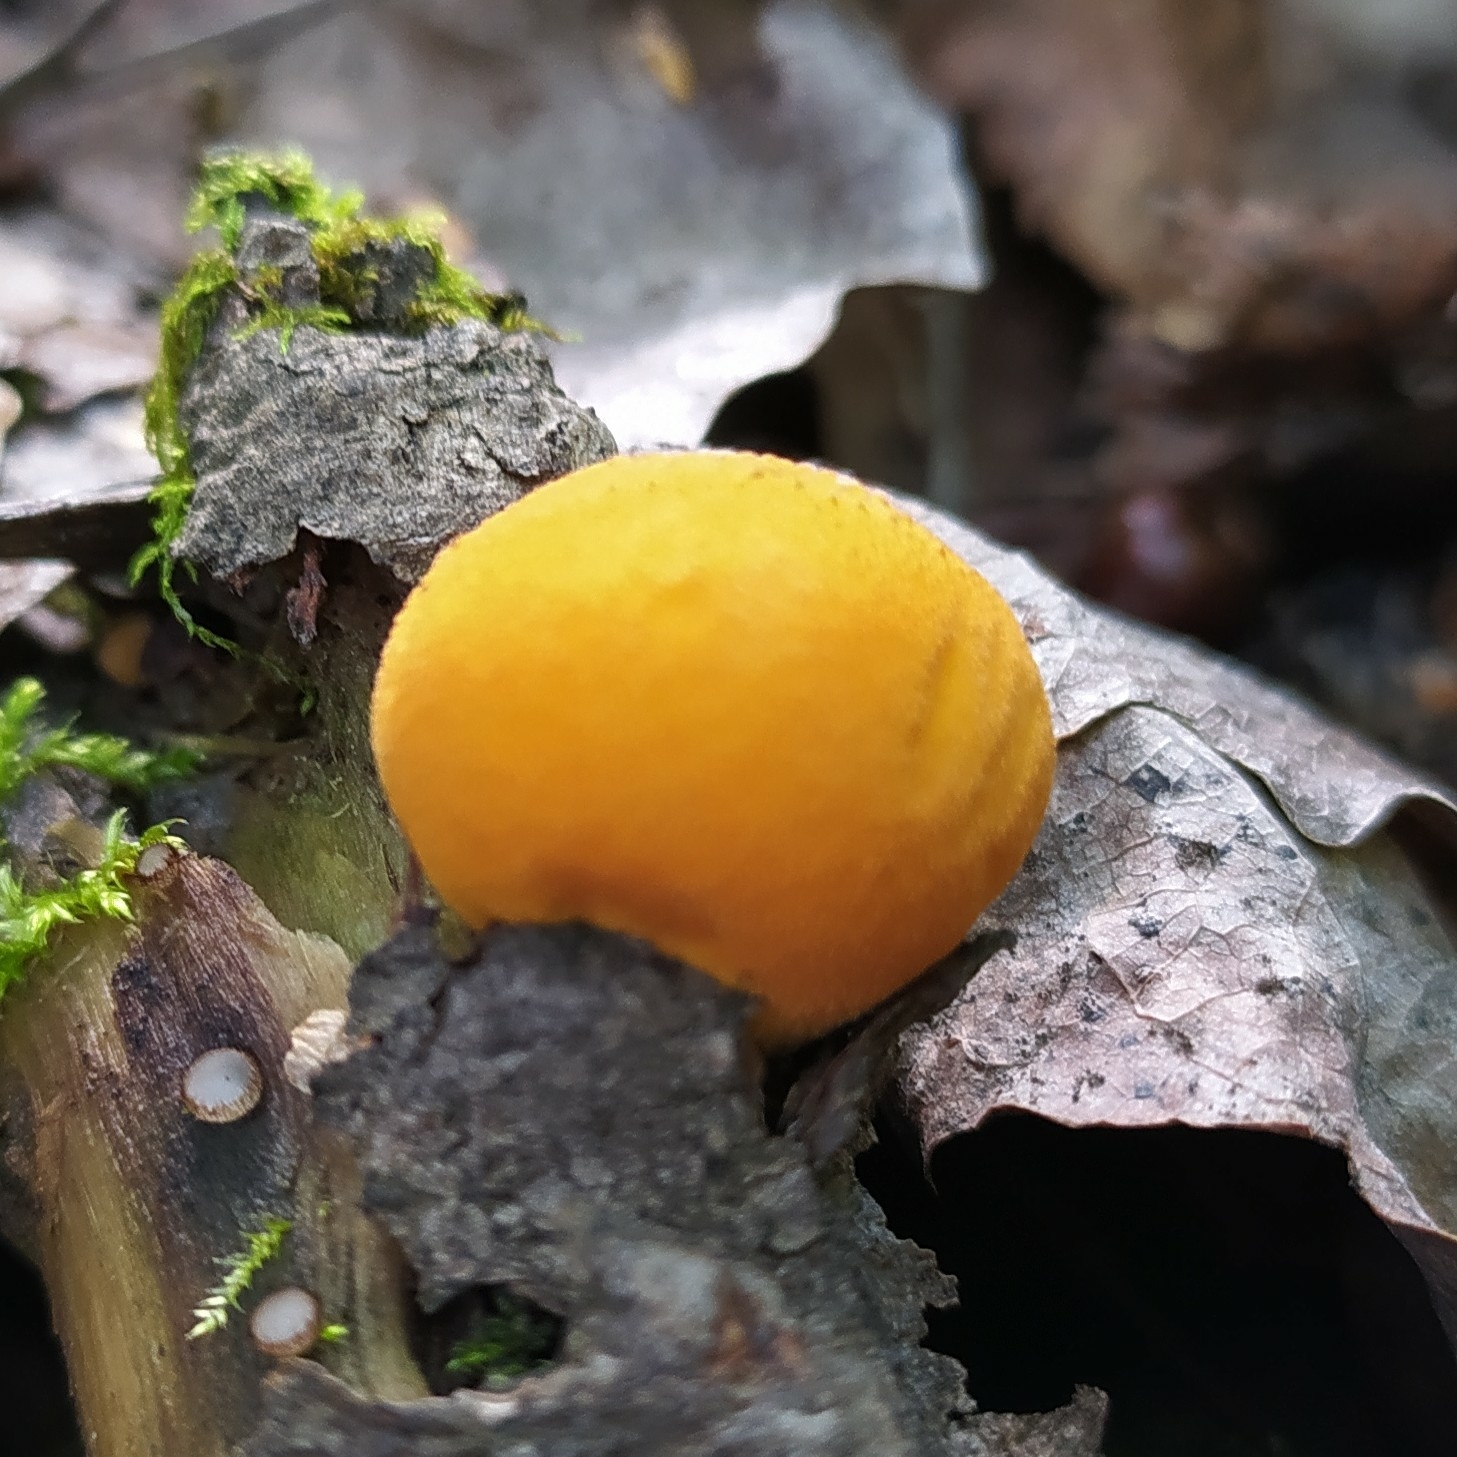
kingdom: Fungi
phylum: Basidiomycota
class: Agaricomycetes
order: Agaricales
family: Lycoperdaceae
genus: Lycoperdon
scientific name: Lycoperdon flavotinctum
